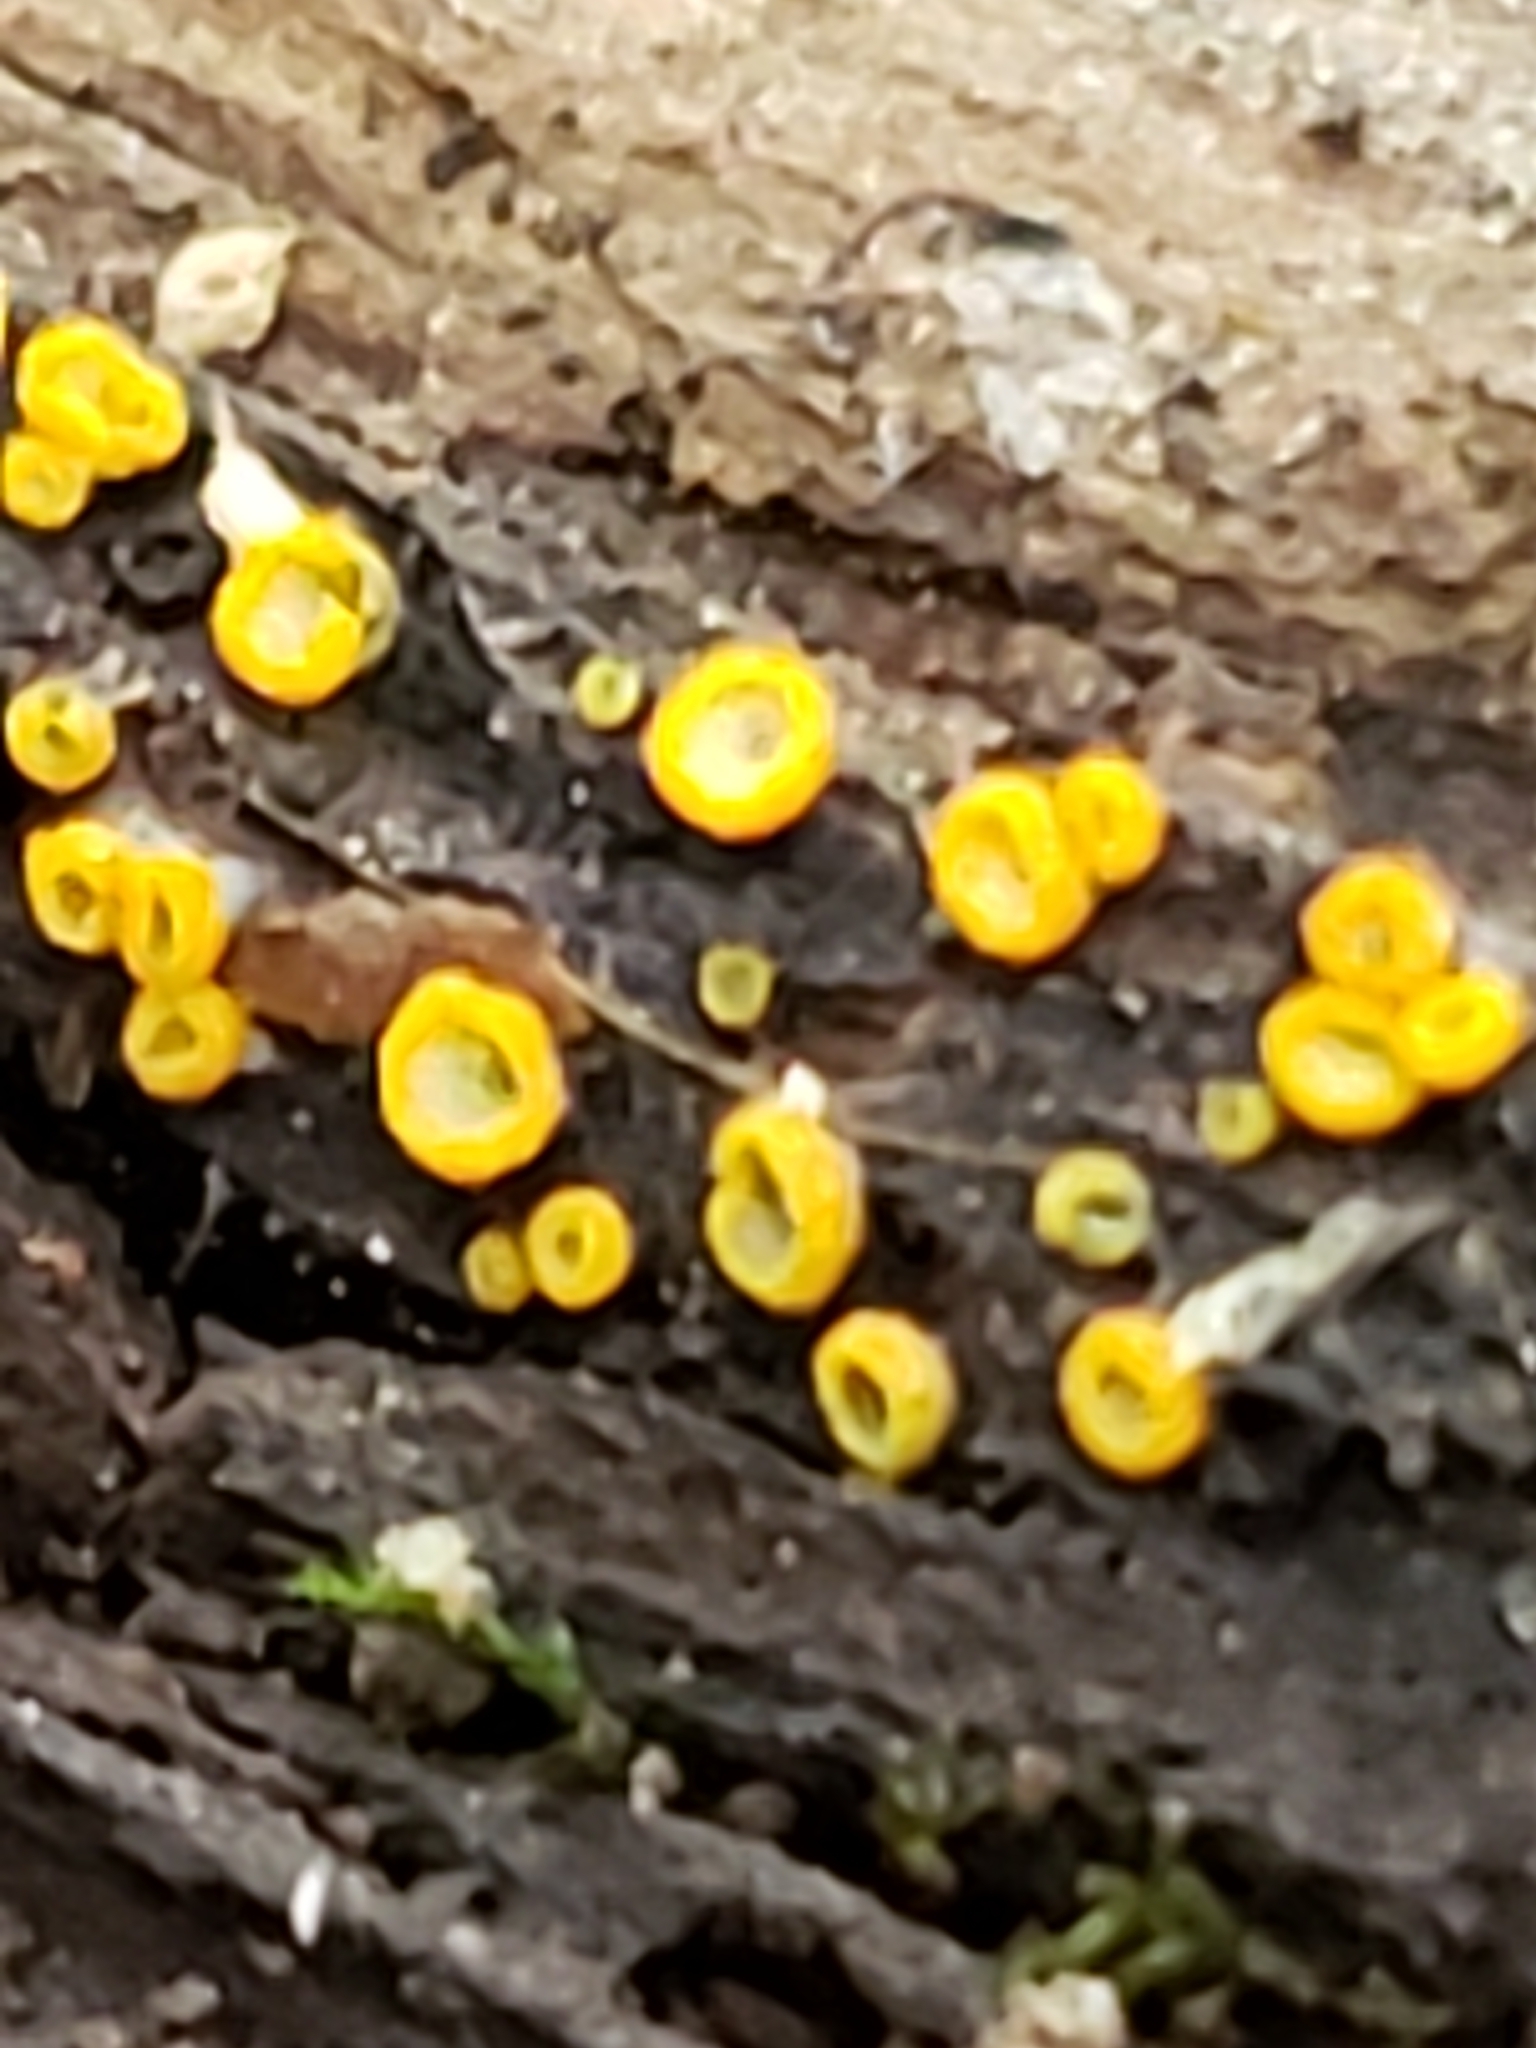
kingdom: Fungi
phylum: Ascomycota
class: Leotiomycetes
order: Helotiales
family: Chlorospleniaceae
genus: Chlorosplenium
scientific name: Chlorosplenium chlora
